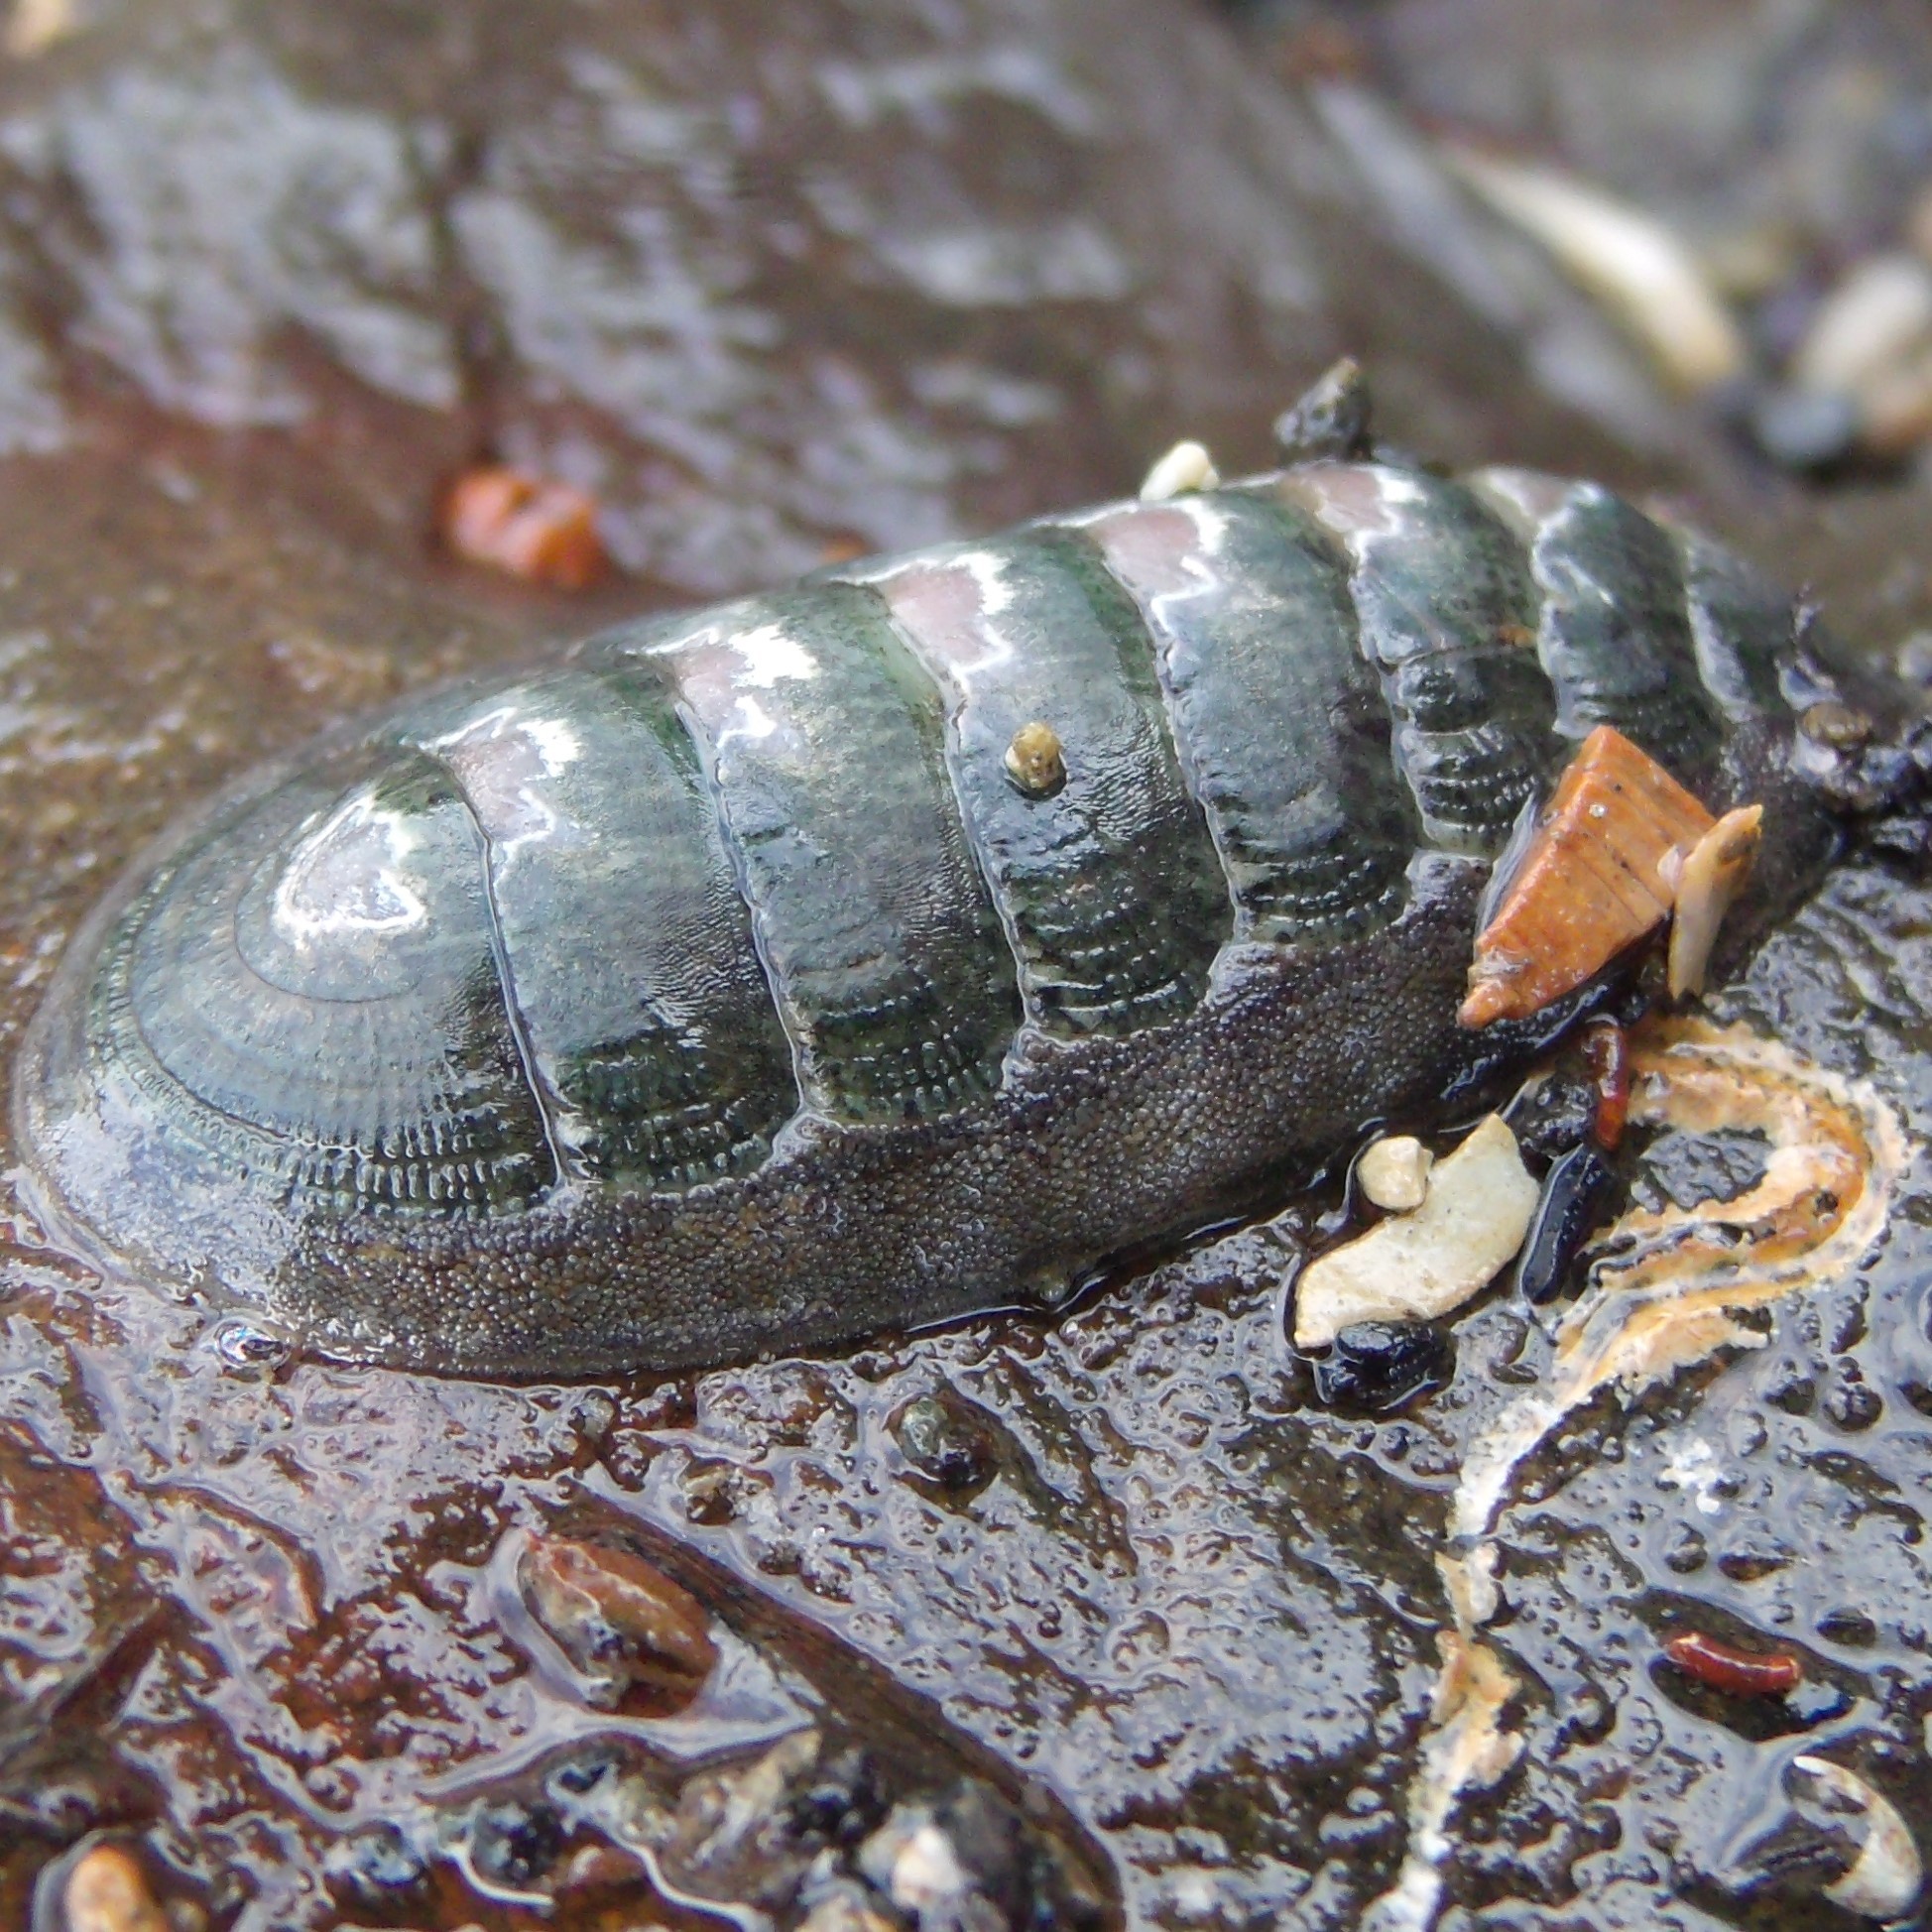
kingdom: Animalia
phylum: Mollusca
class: Polyplacophora
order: Chitonida
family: Ischnochitonidae
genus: Ischnochiton
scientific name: Ischnochiton maorianus
